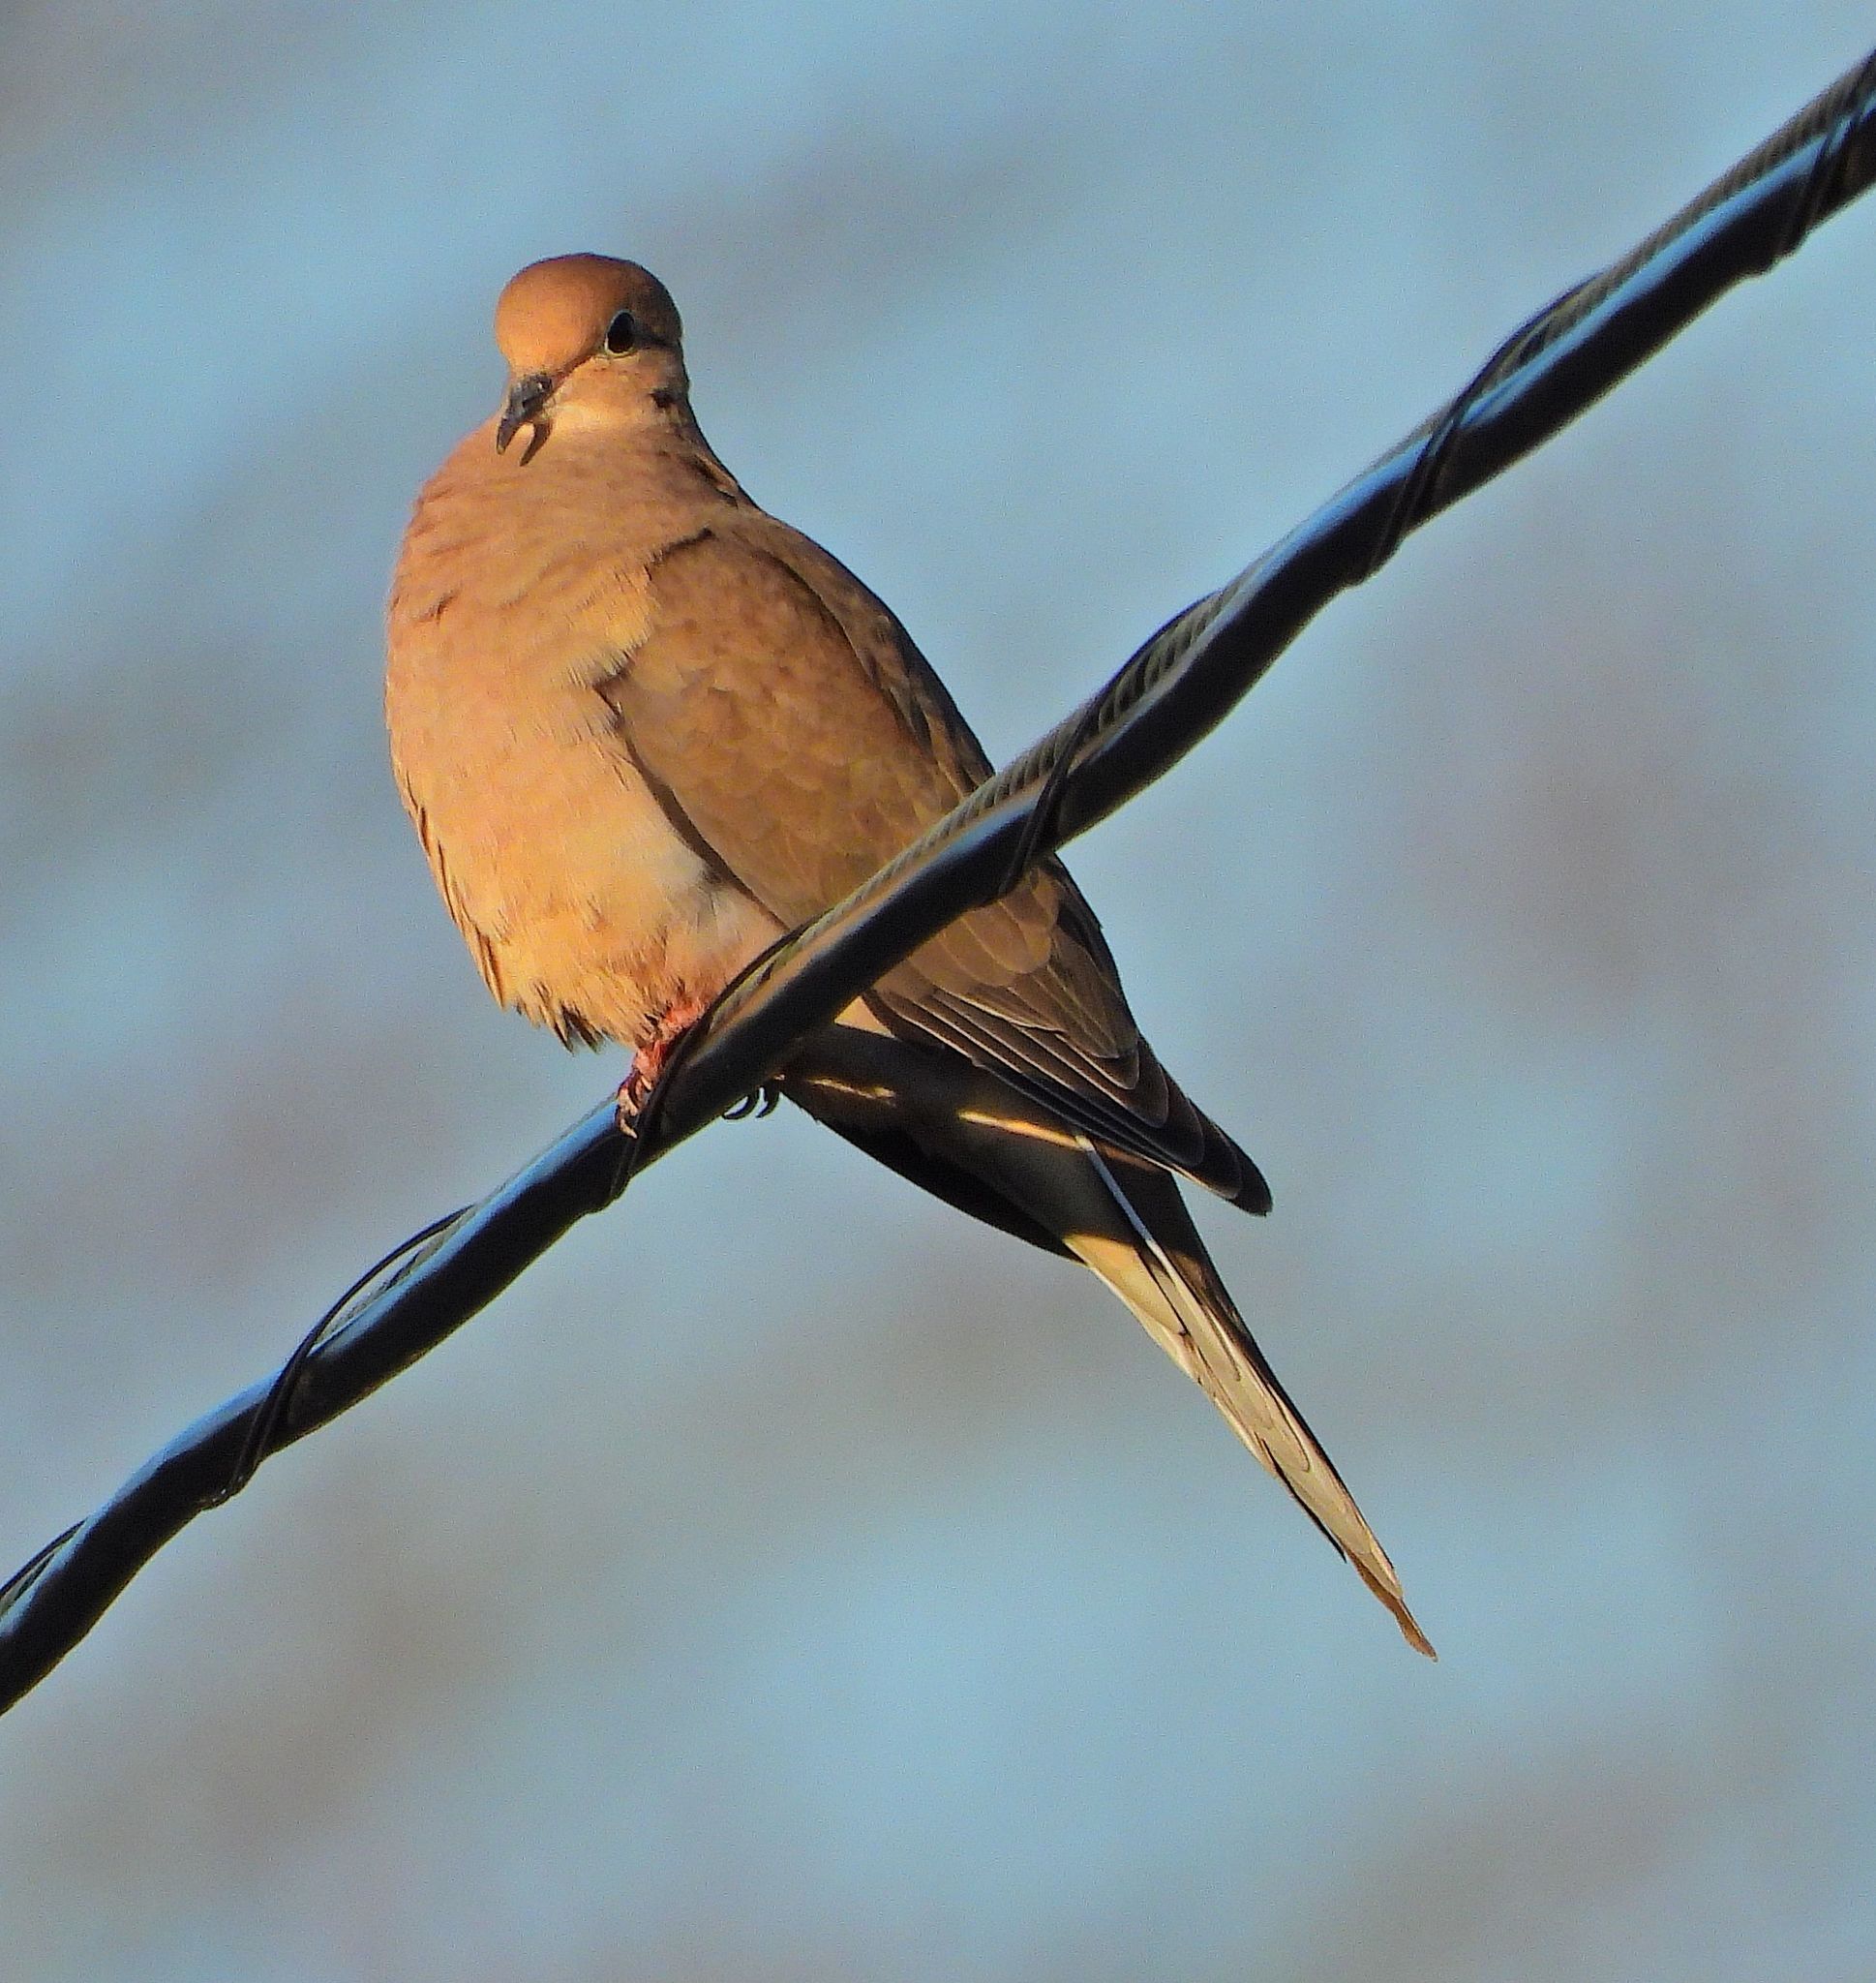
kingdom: Animalia
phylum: Chordata
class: Aves
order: Columbiformes
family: Columbidae
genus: Zenaida
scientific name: Zenaida macroura
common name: Mourning dove
